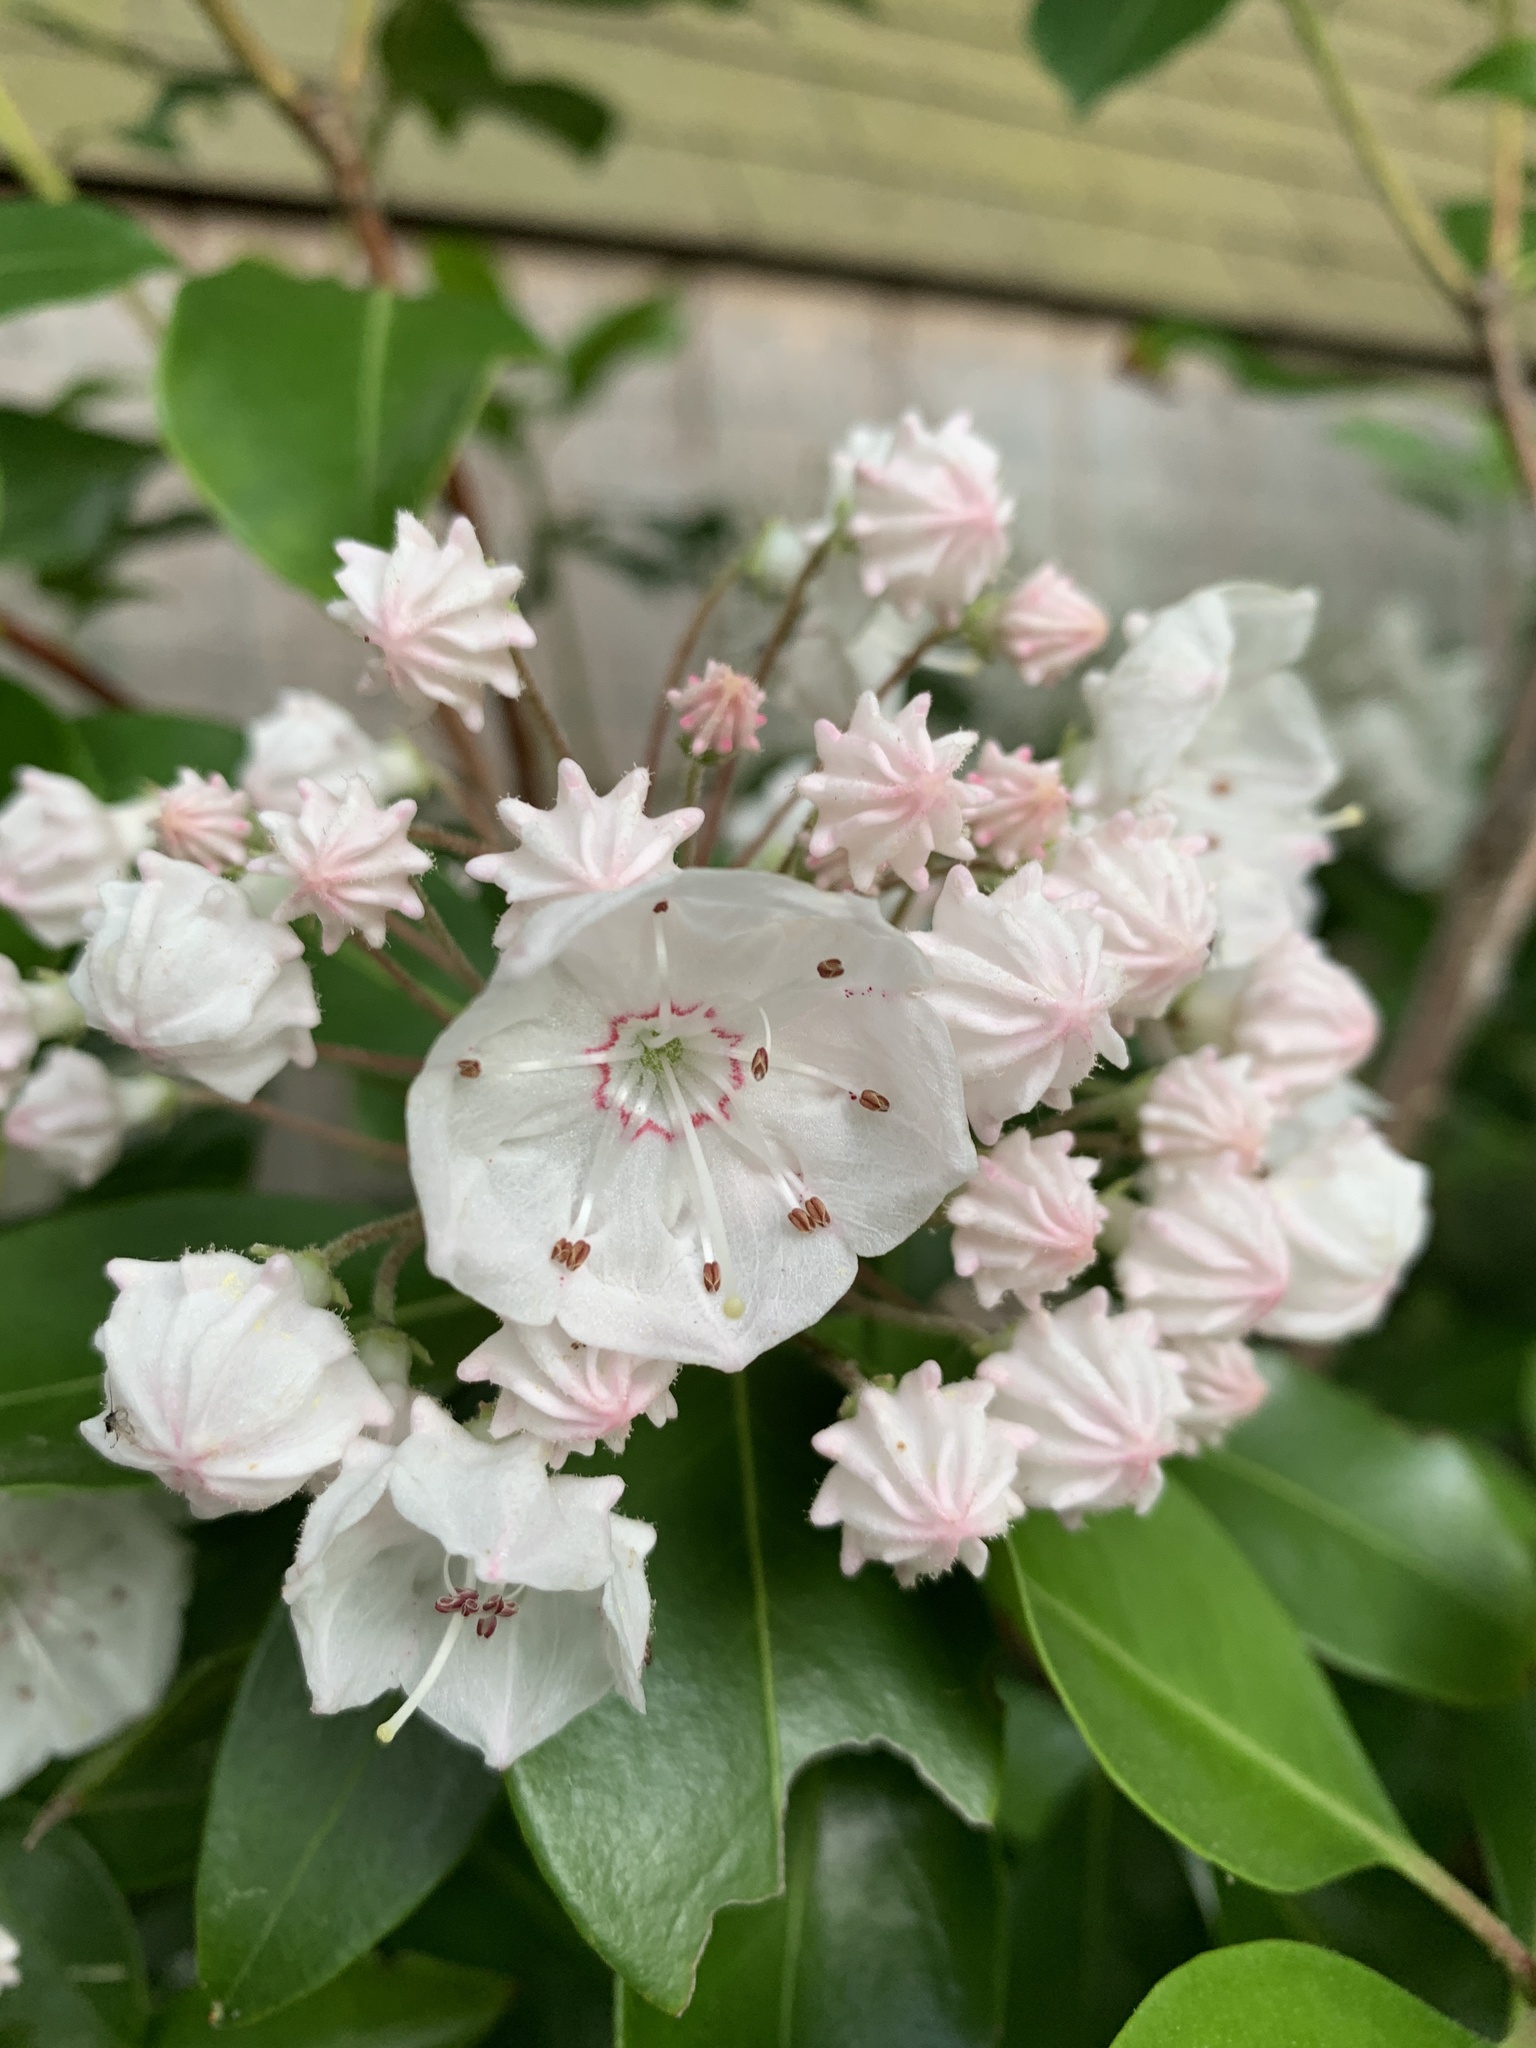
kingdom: Plantae
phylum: Tracheophyta
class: Magnoliopsida
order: Ericales
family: Ericaceae
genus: Kalmia
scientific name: Kalmia latifolia
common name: Mountain-laurel
